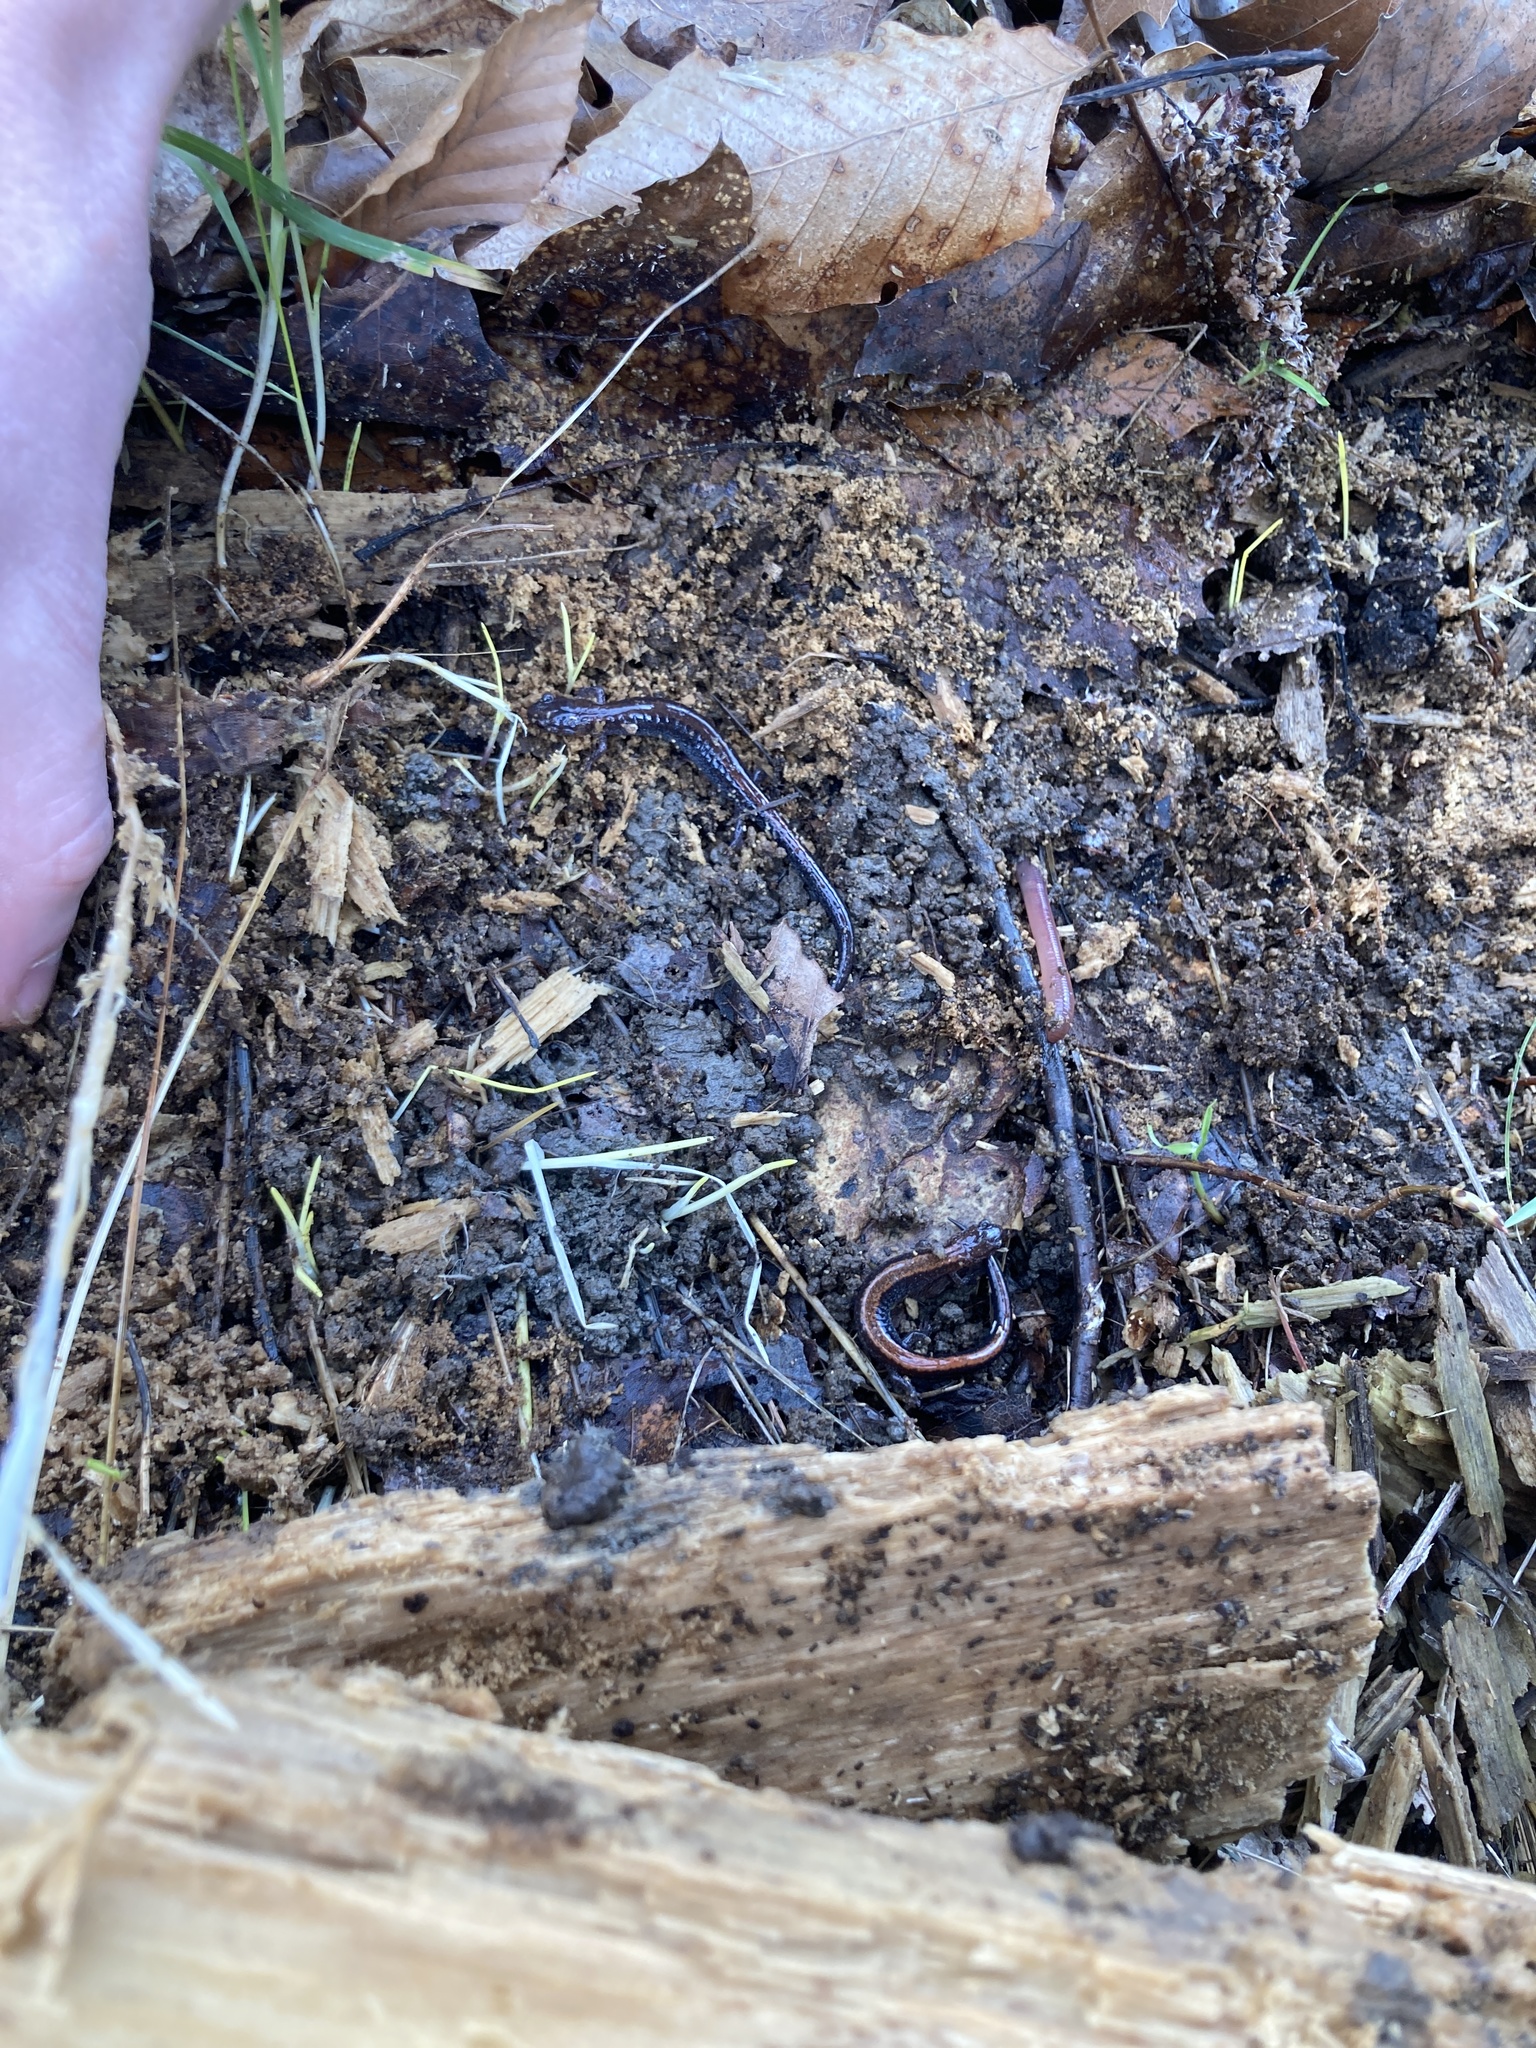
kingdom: Animalia
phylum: Chordata
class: Amphibia
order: Caudata
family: Plethodontidae
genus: Plethodon
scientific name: Plethodon cinereus
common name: Redback salamander
